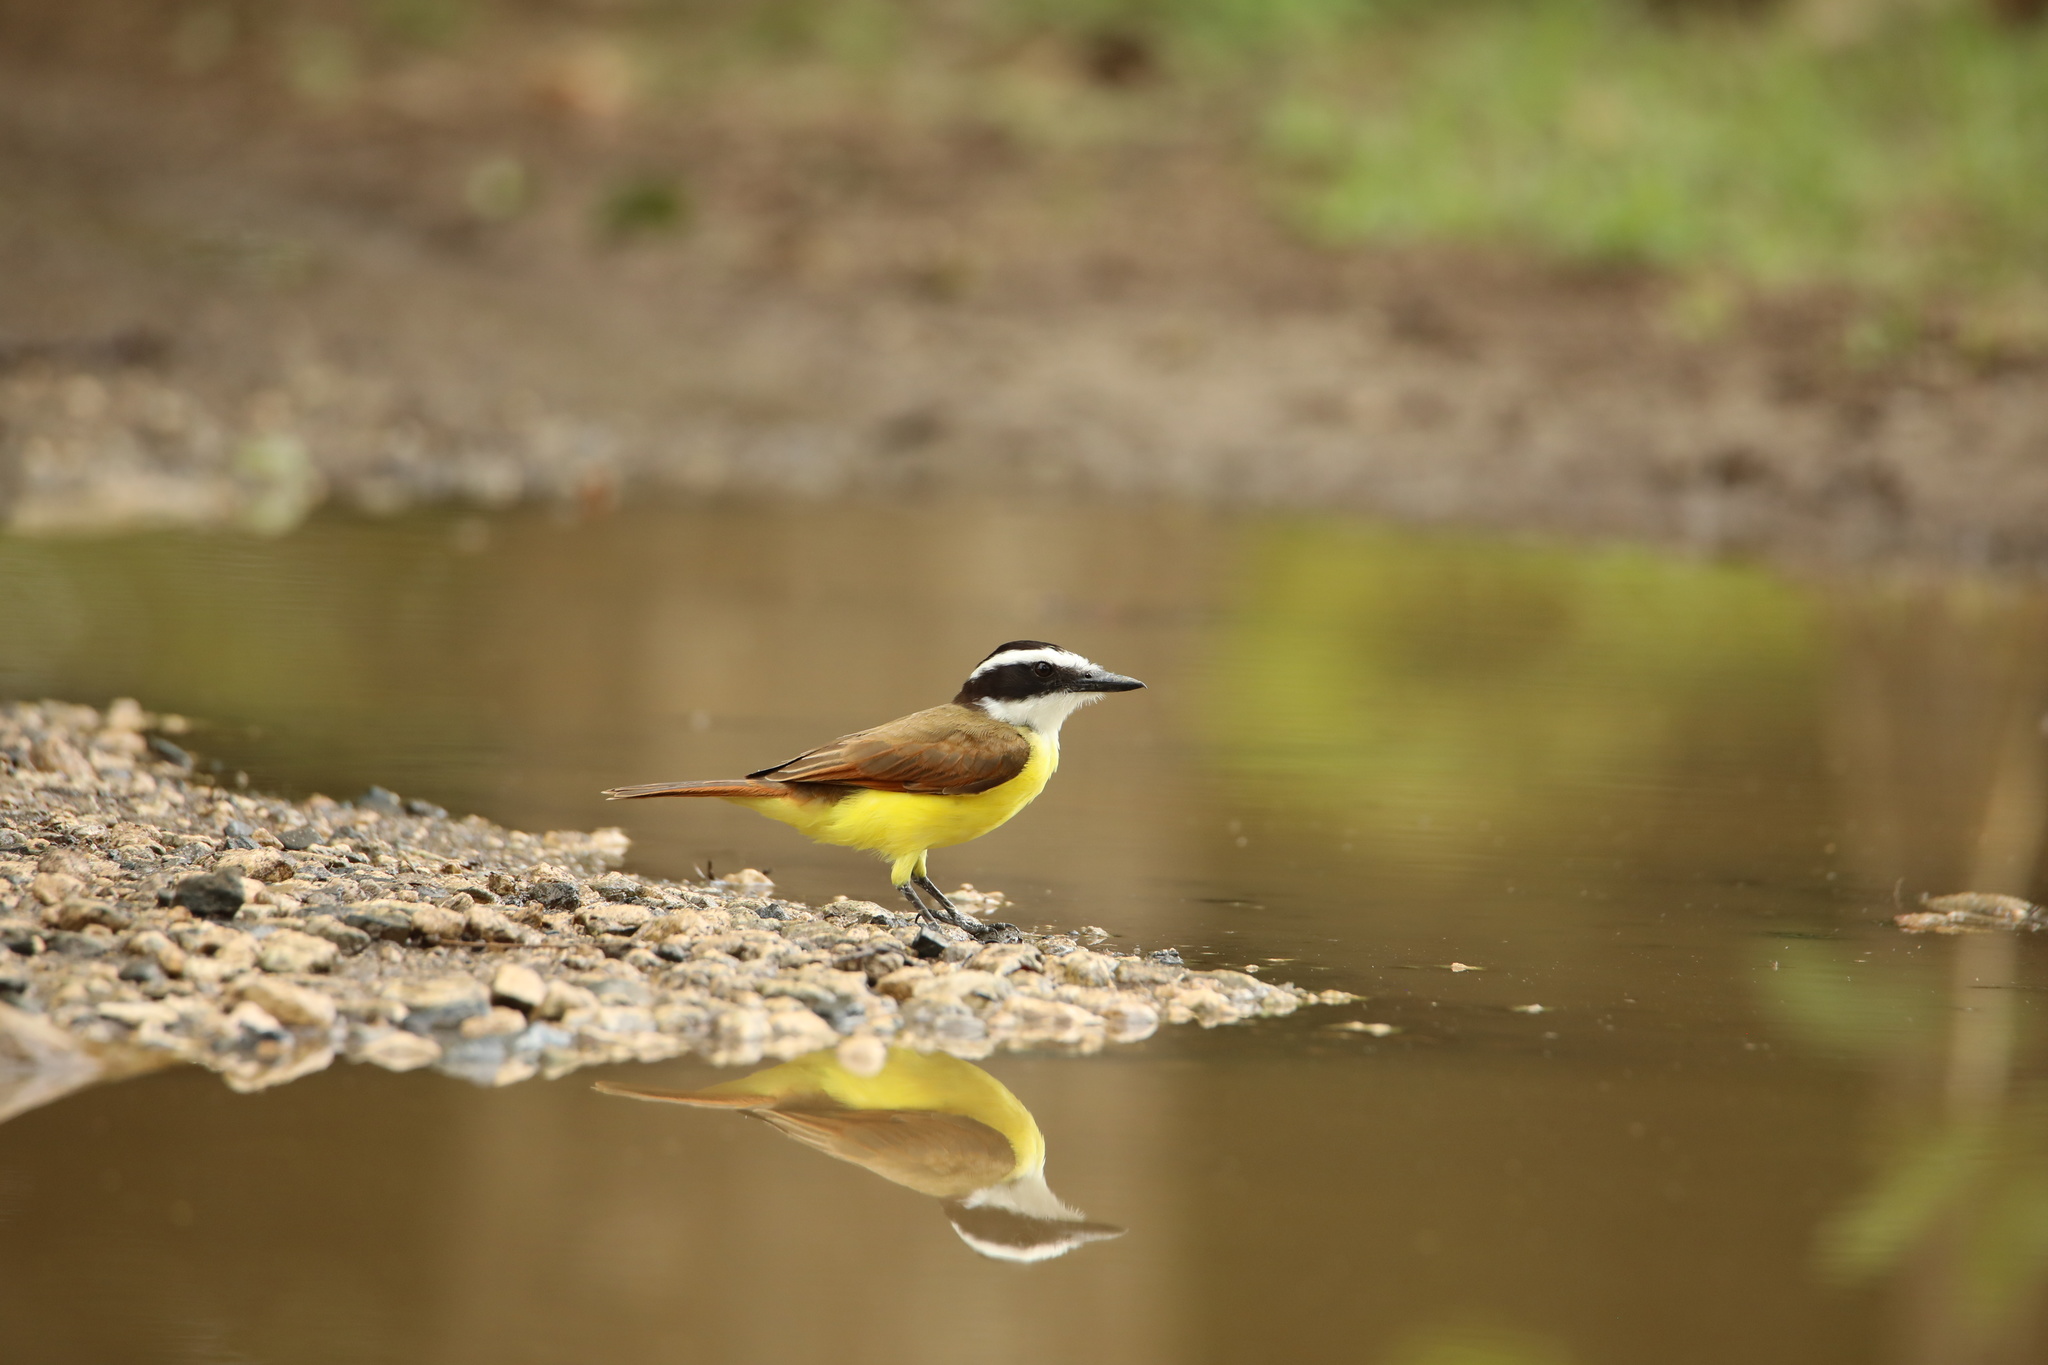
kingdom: Animalia
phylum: Chordata
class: Aves
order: Passeriformes
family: Tyrannidae
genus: Pitangus
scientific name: Pitangus sulphuratus
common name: Great kiskadee
